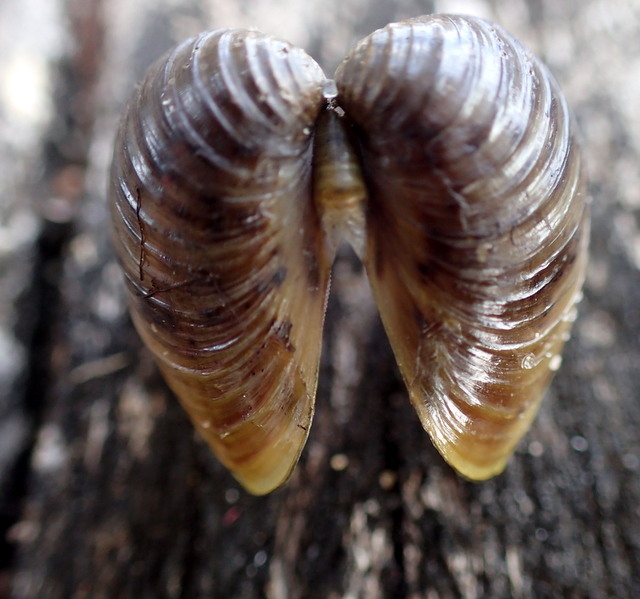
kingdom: Animalia
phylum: Mollusca
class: Bivalvia
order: Venerida
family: Cyrenidae
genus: Corbicula
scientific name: Corbicula fluminea
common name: Asian clam
